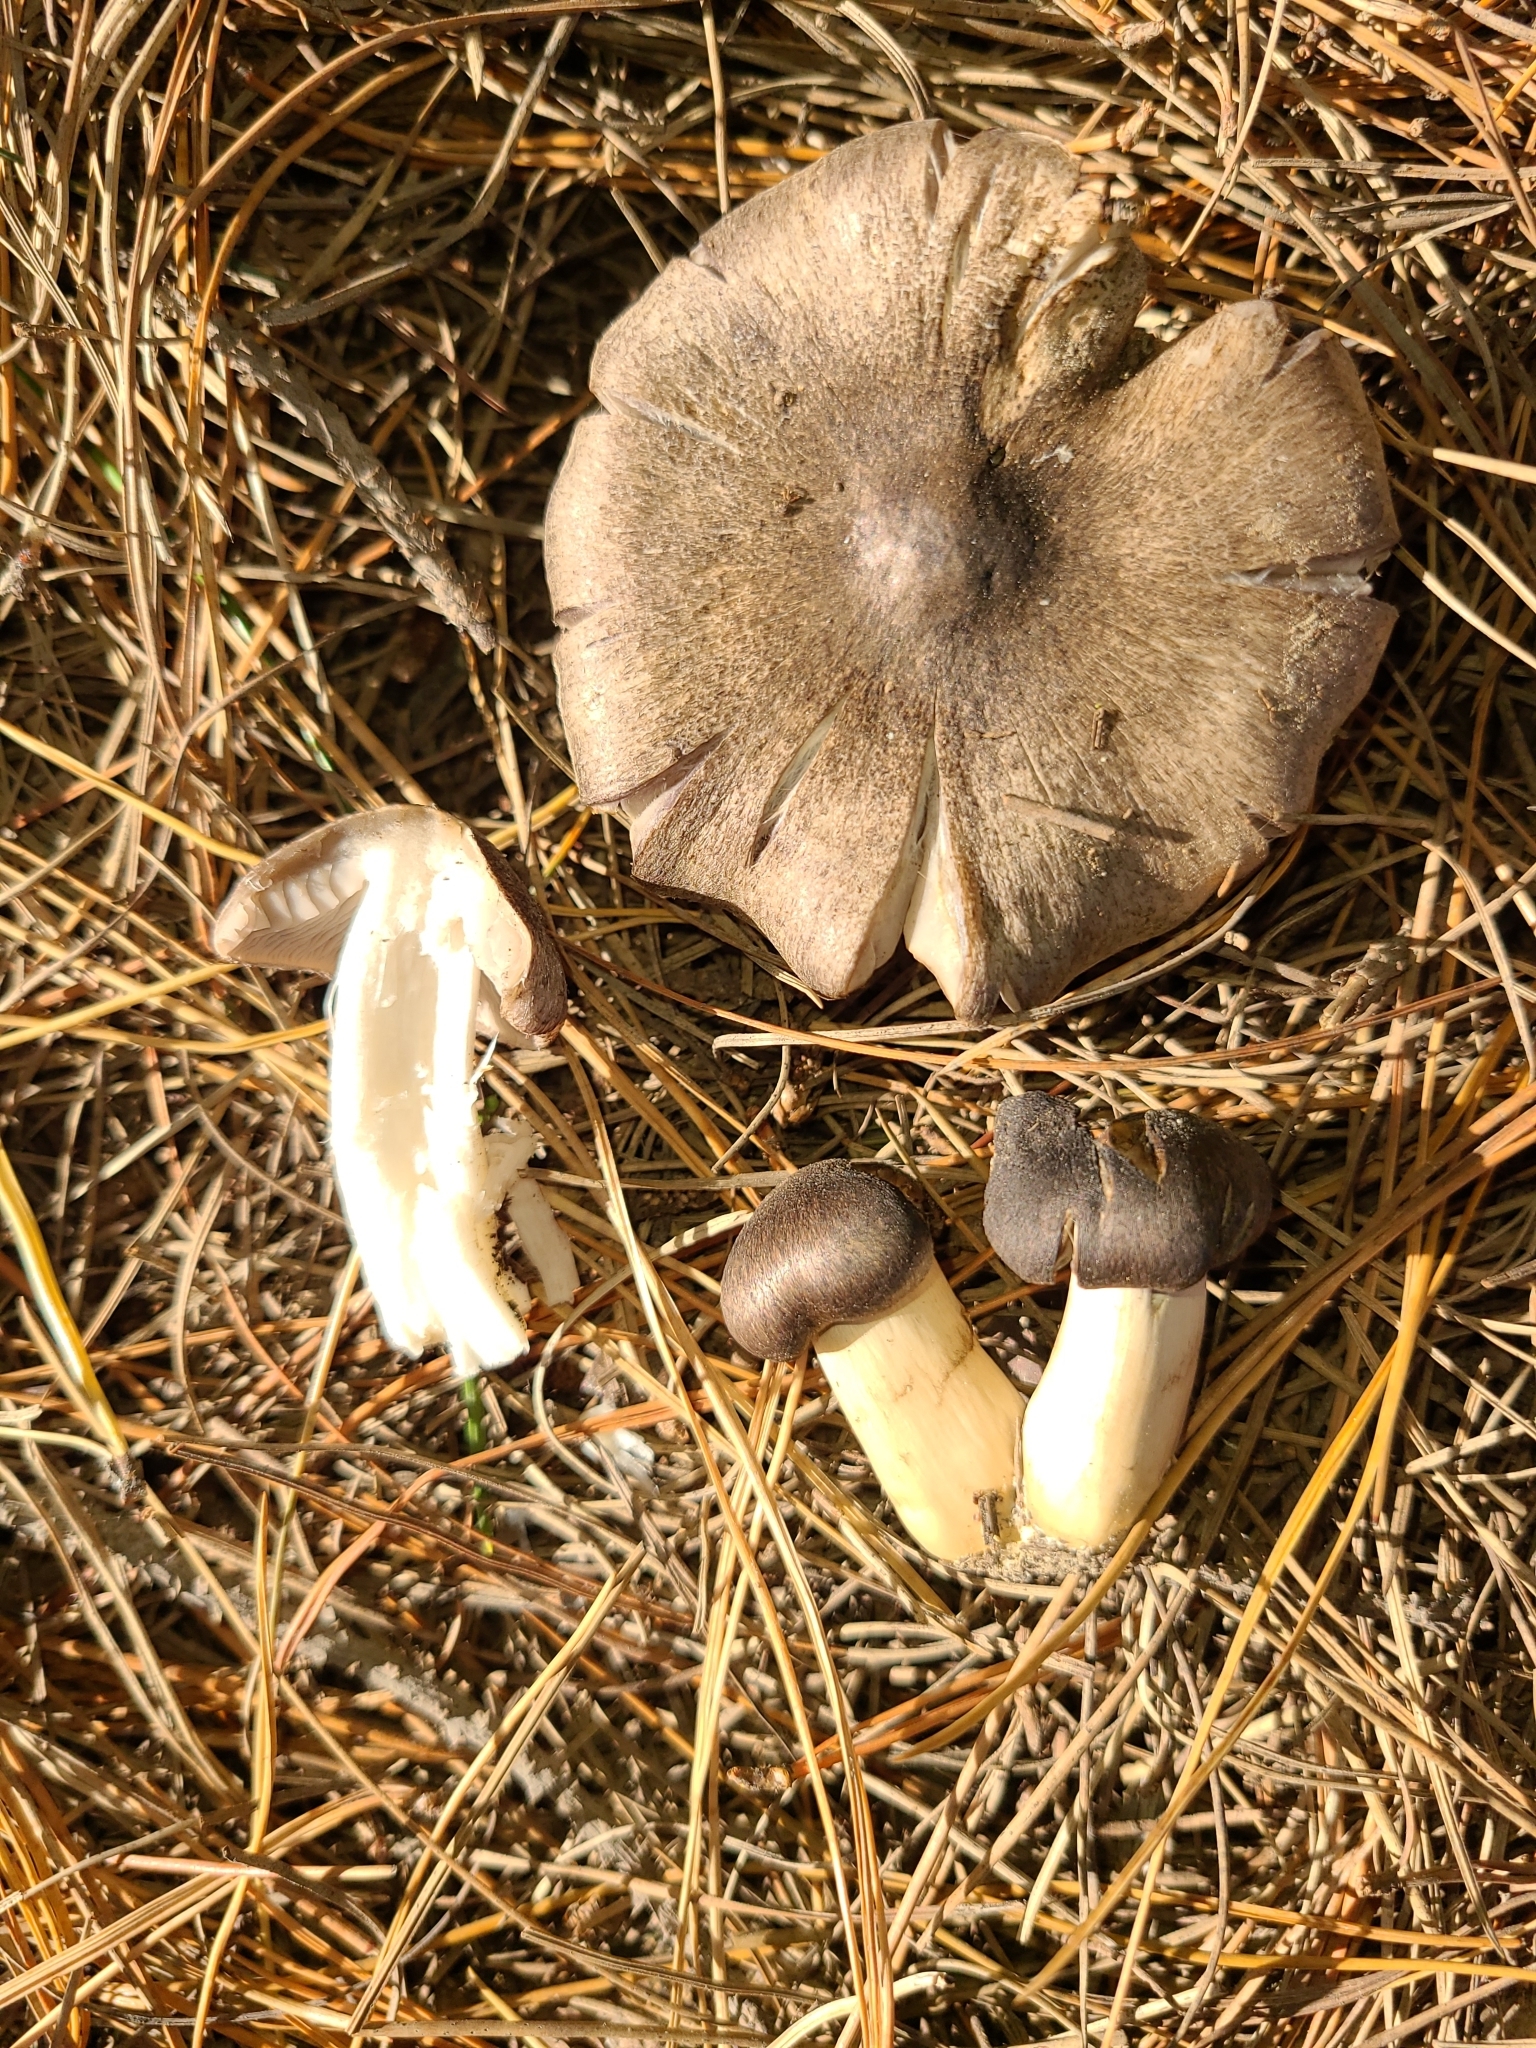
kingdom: Fungi
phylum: Basidiomycota
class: Agaricomycetes
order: Agaricales
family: Tricholomataceae
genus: Tricholoma
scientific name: Tricholoma terreum
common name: Grey knight
